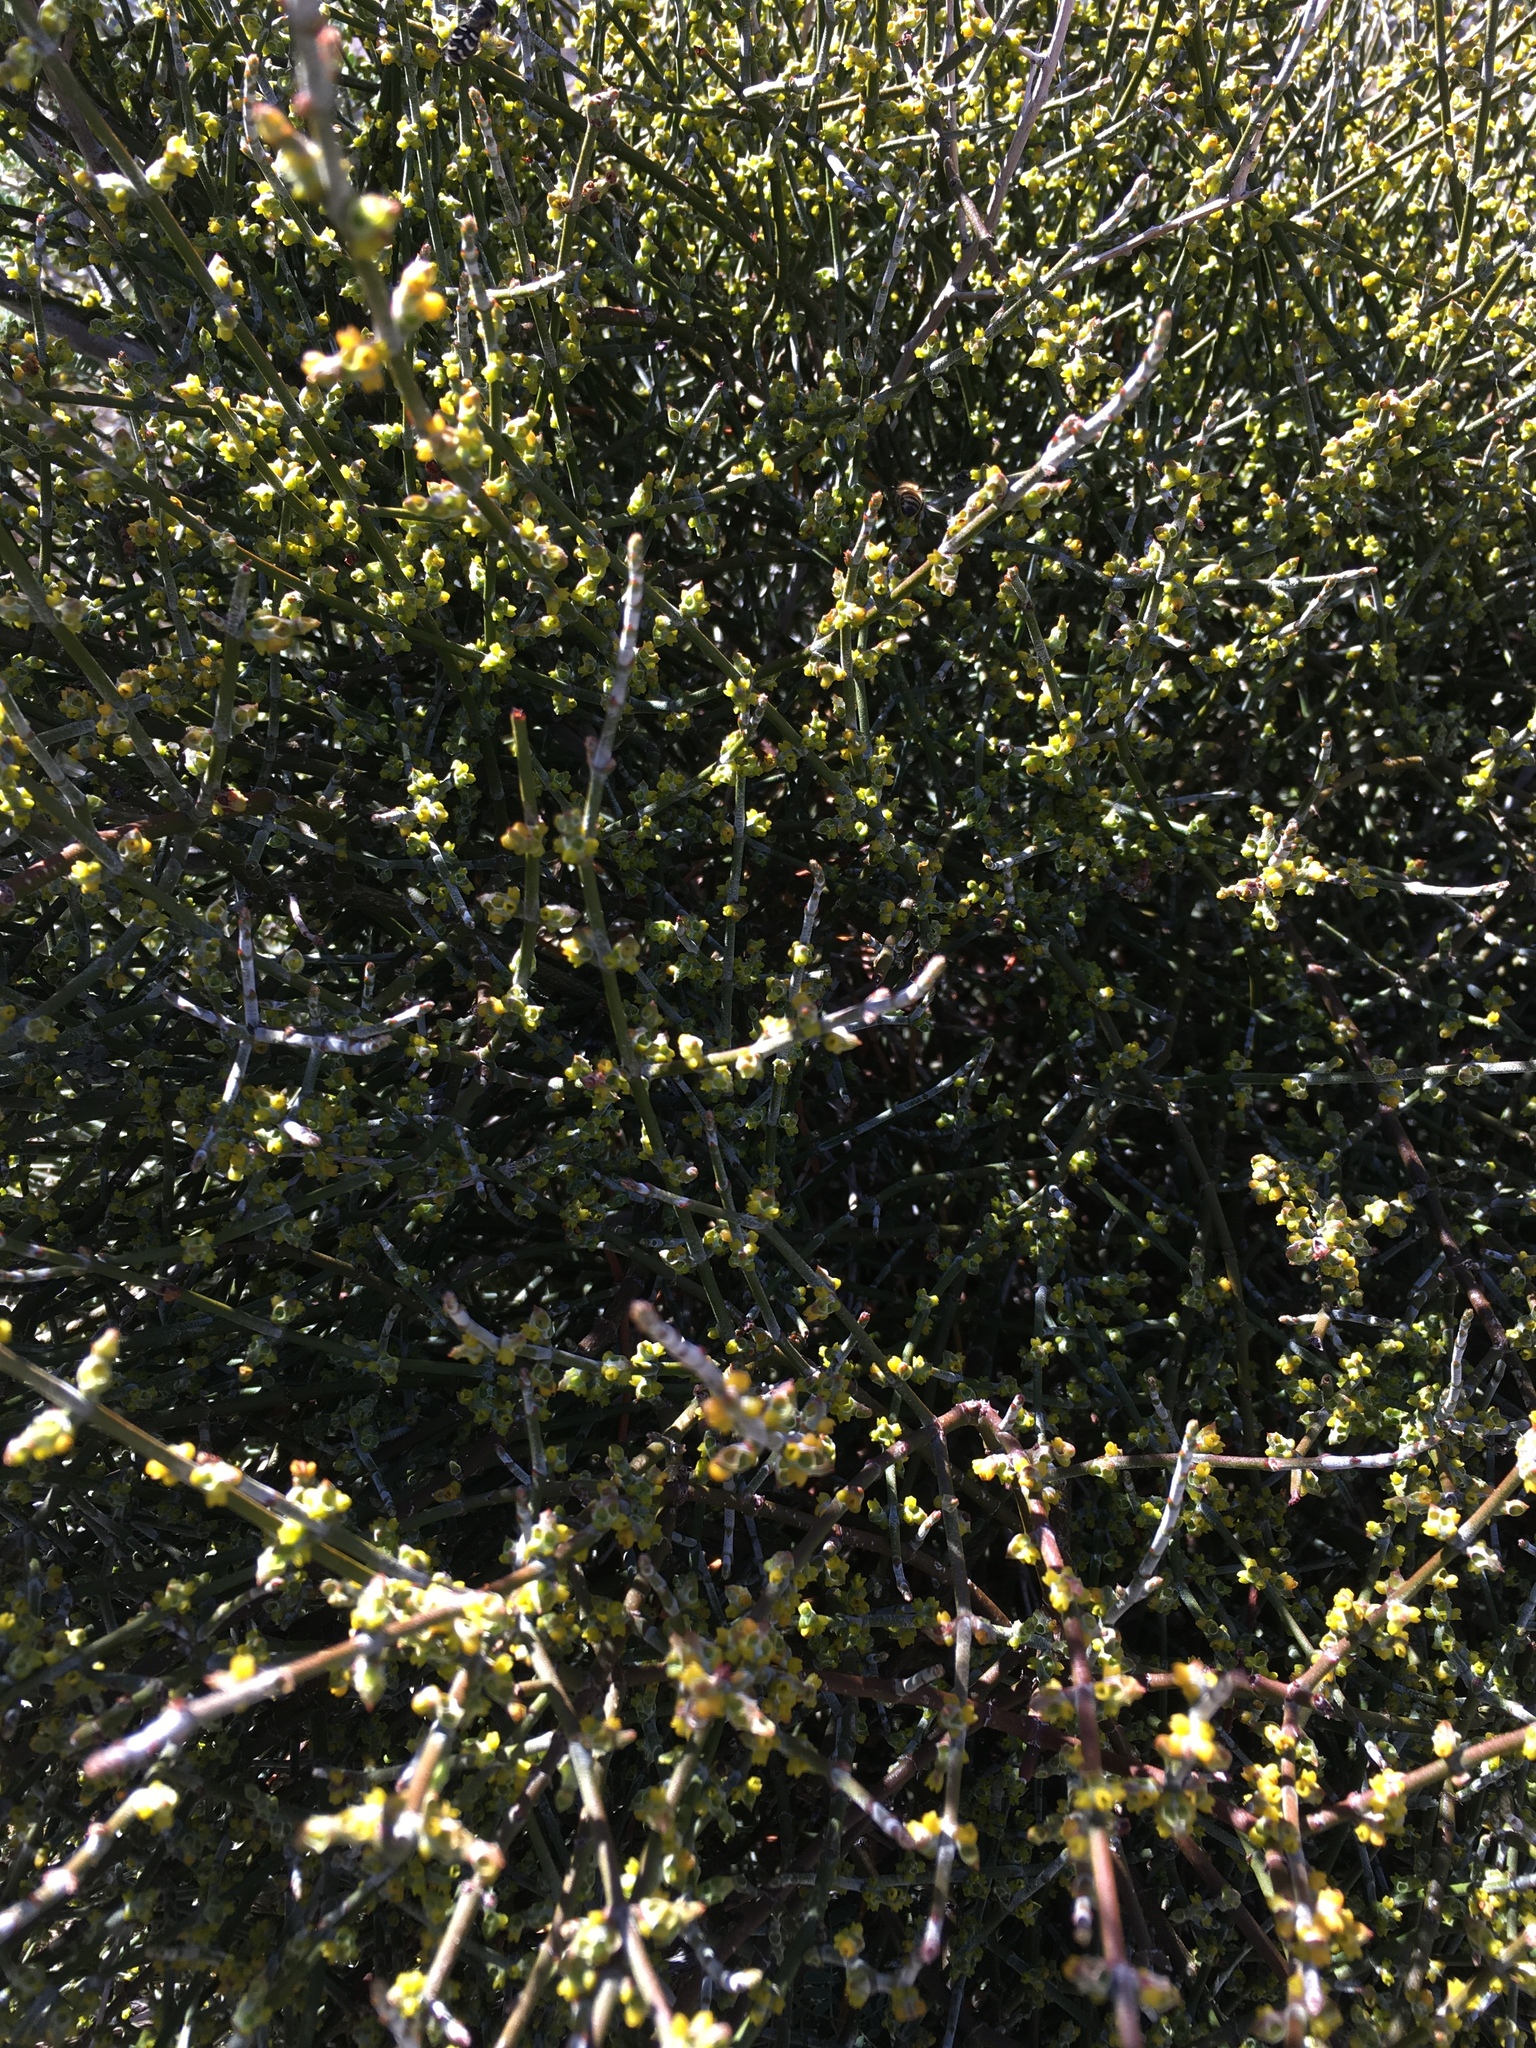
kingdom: Plantae
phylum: Tracheophyta
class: Magnoliopsida
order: Santalales
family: Viscaceae
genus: Phoradendron
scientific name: Phoradendron californicum
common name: Acacia mistletoe
